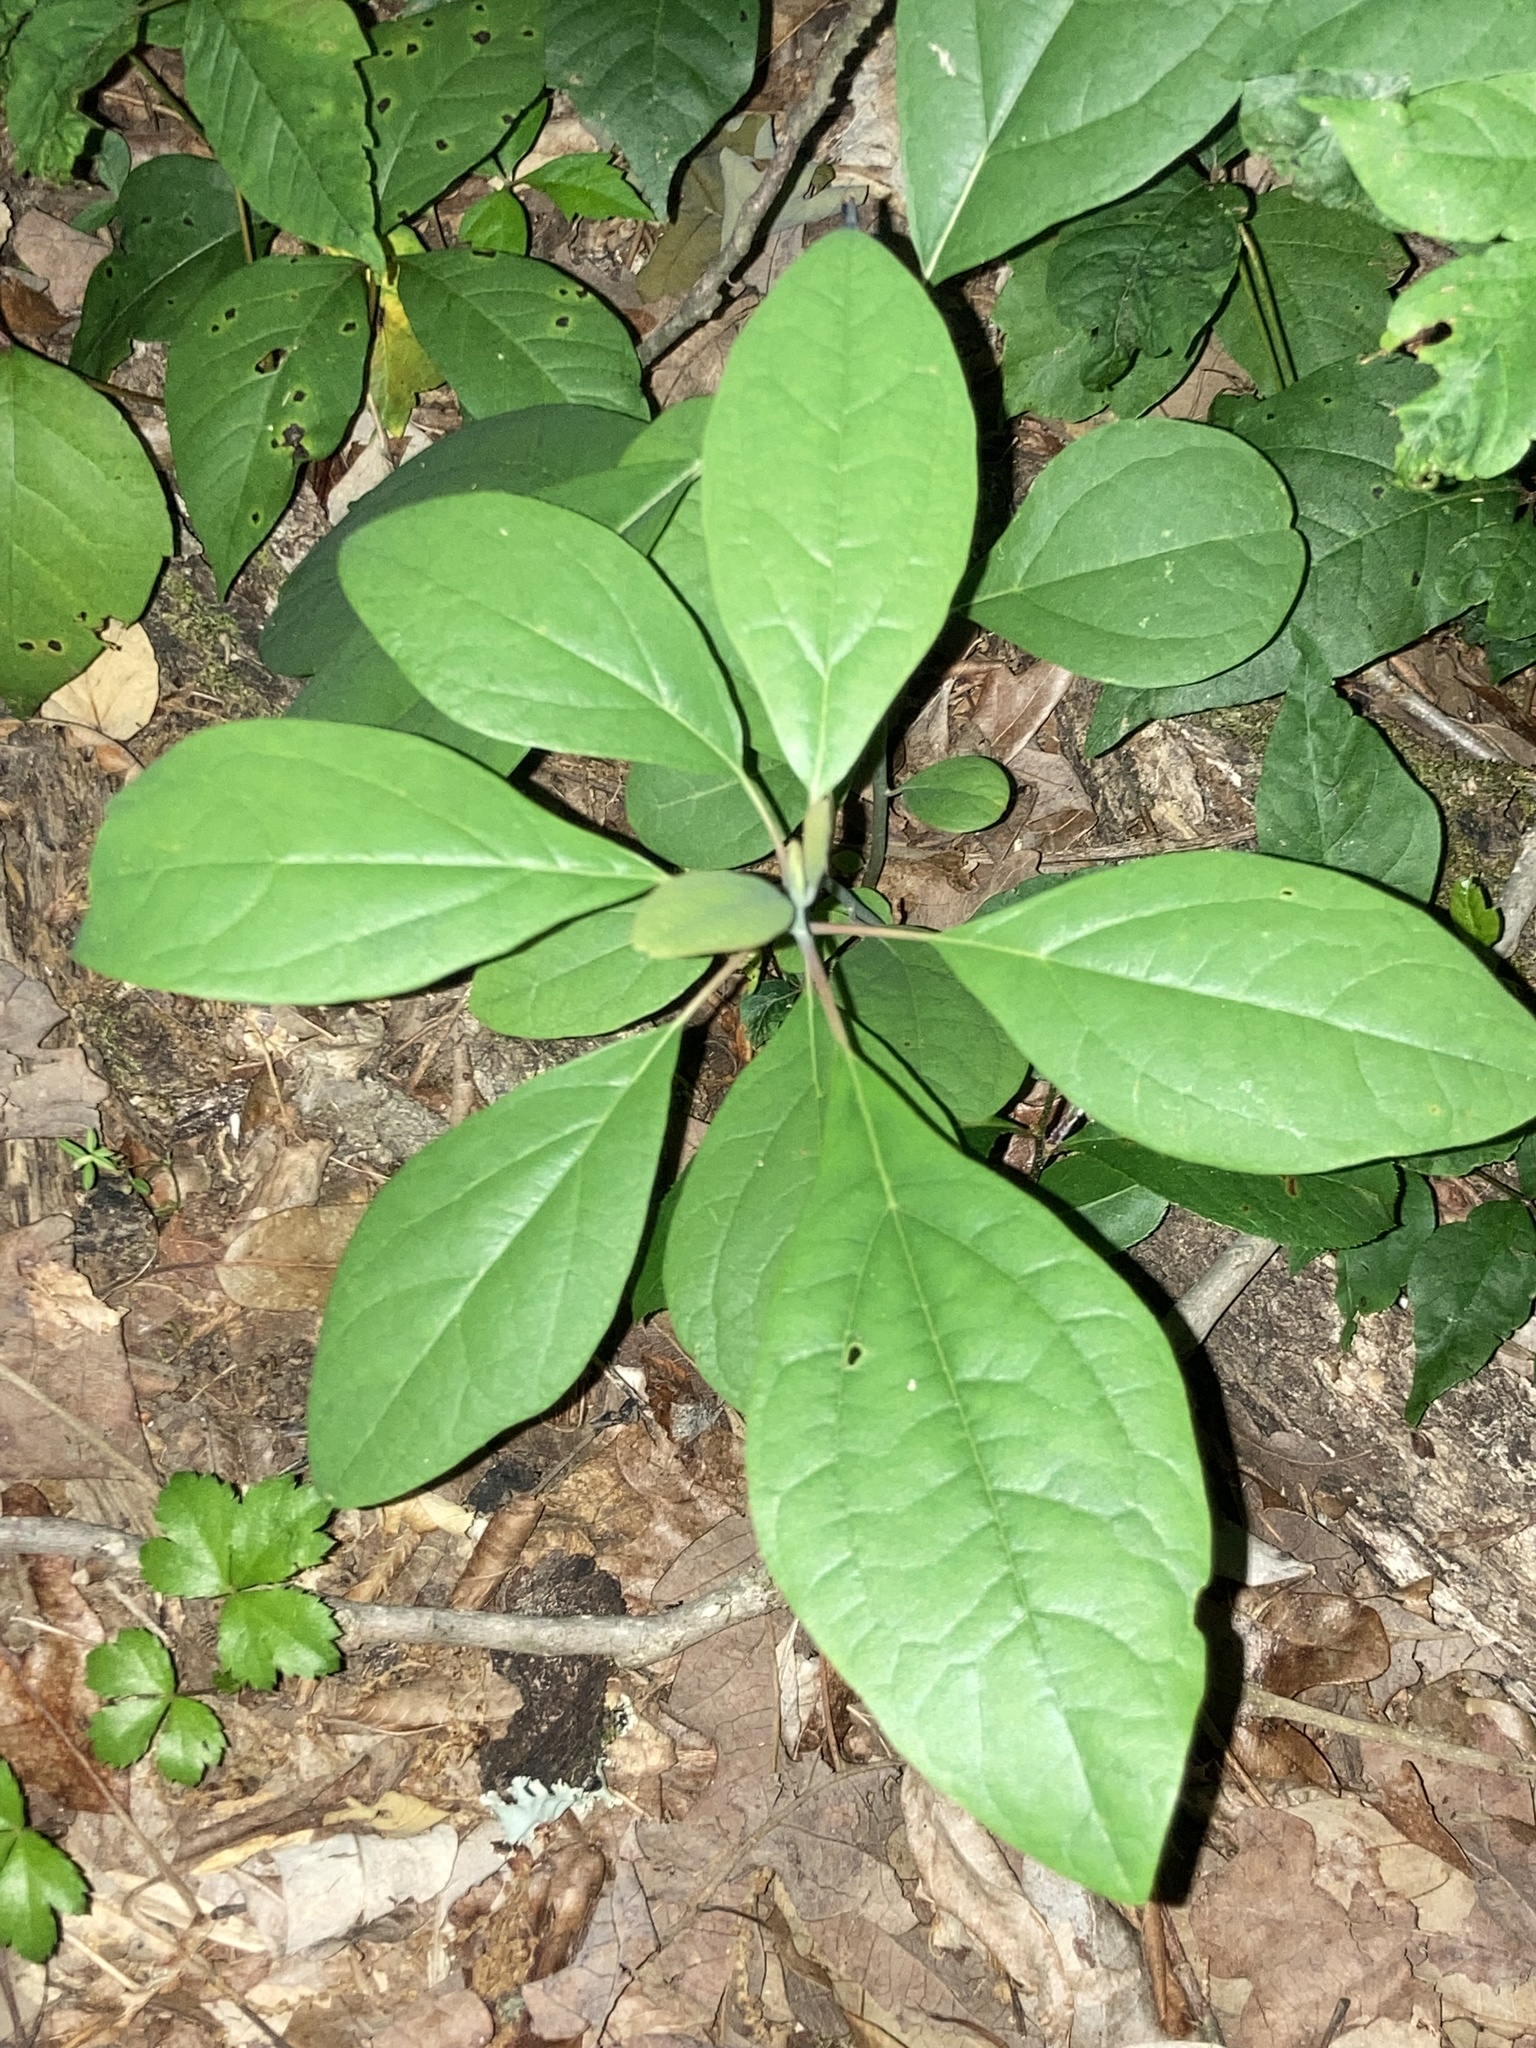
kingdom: Plantae
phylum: Tracheophyta
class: Magnoliopsida
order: Laurales
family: Lauraceae
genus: Sassafras
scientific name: Sassafras albidum
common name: Sassafras
